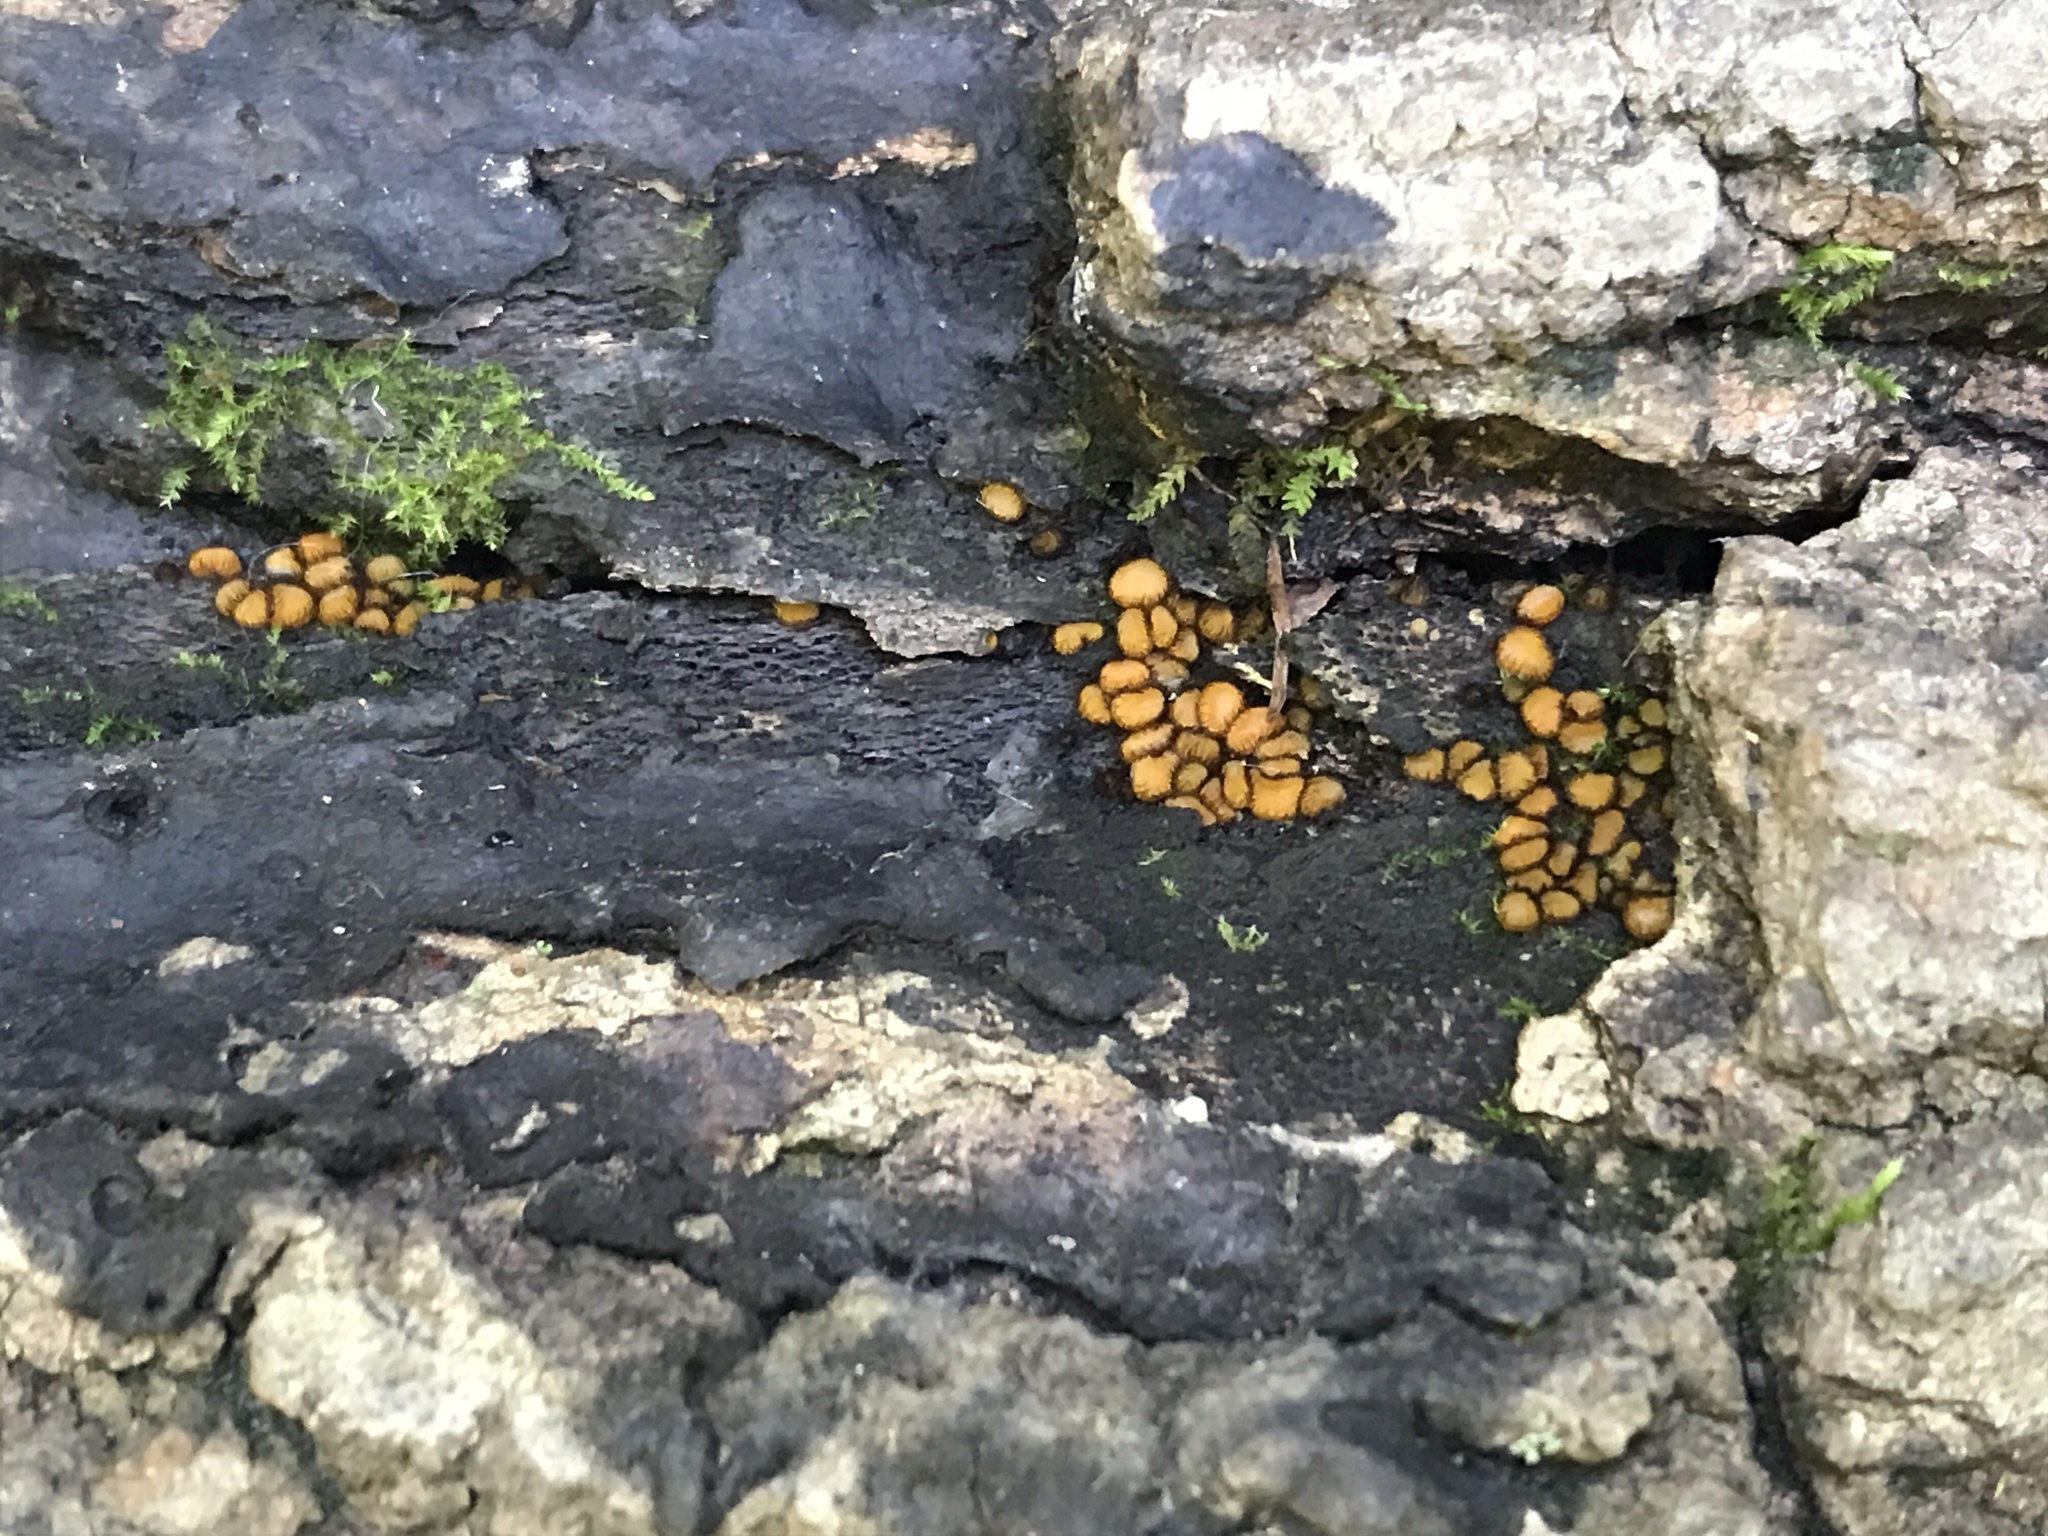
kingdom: Fungi
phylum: Ascomycota
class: Pezizomycetes
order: Pezizales
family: Pyronemataceae
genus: Scutellinia
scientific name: Scutellinia setosa
